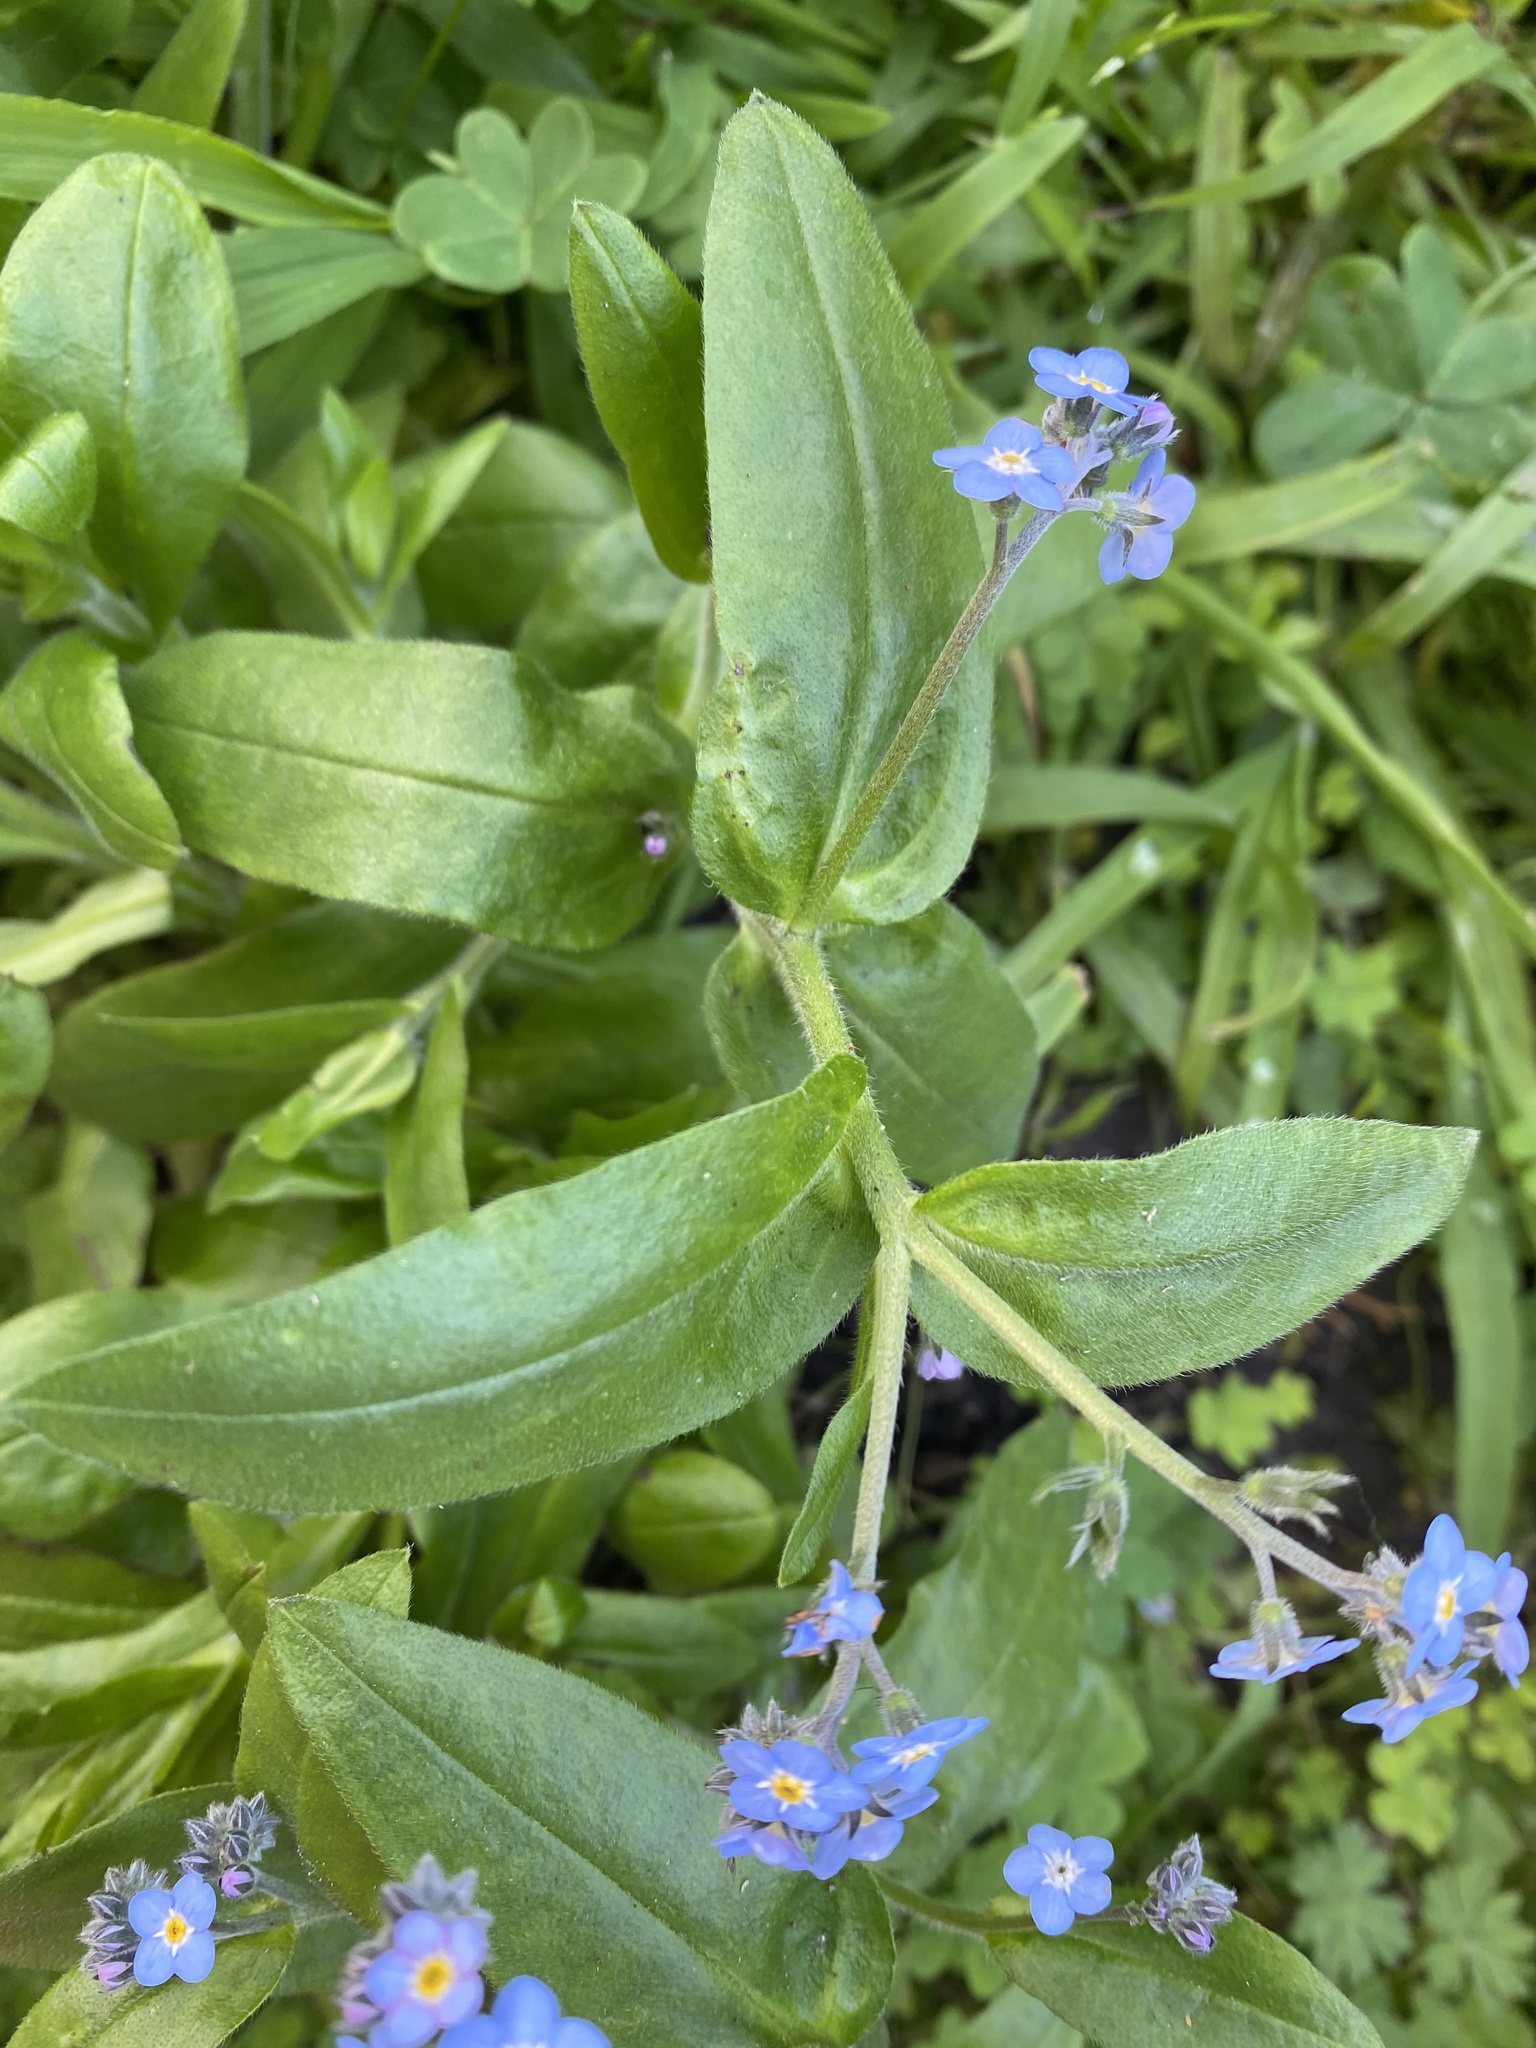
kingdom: Plantae
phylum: Tracheophyta
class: Magnoliopsida
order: Boraginales
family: Boraginaceae
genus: Myosotis
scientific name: Myosotis latifolia
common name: Broadleaf forget-me-not
